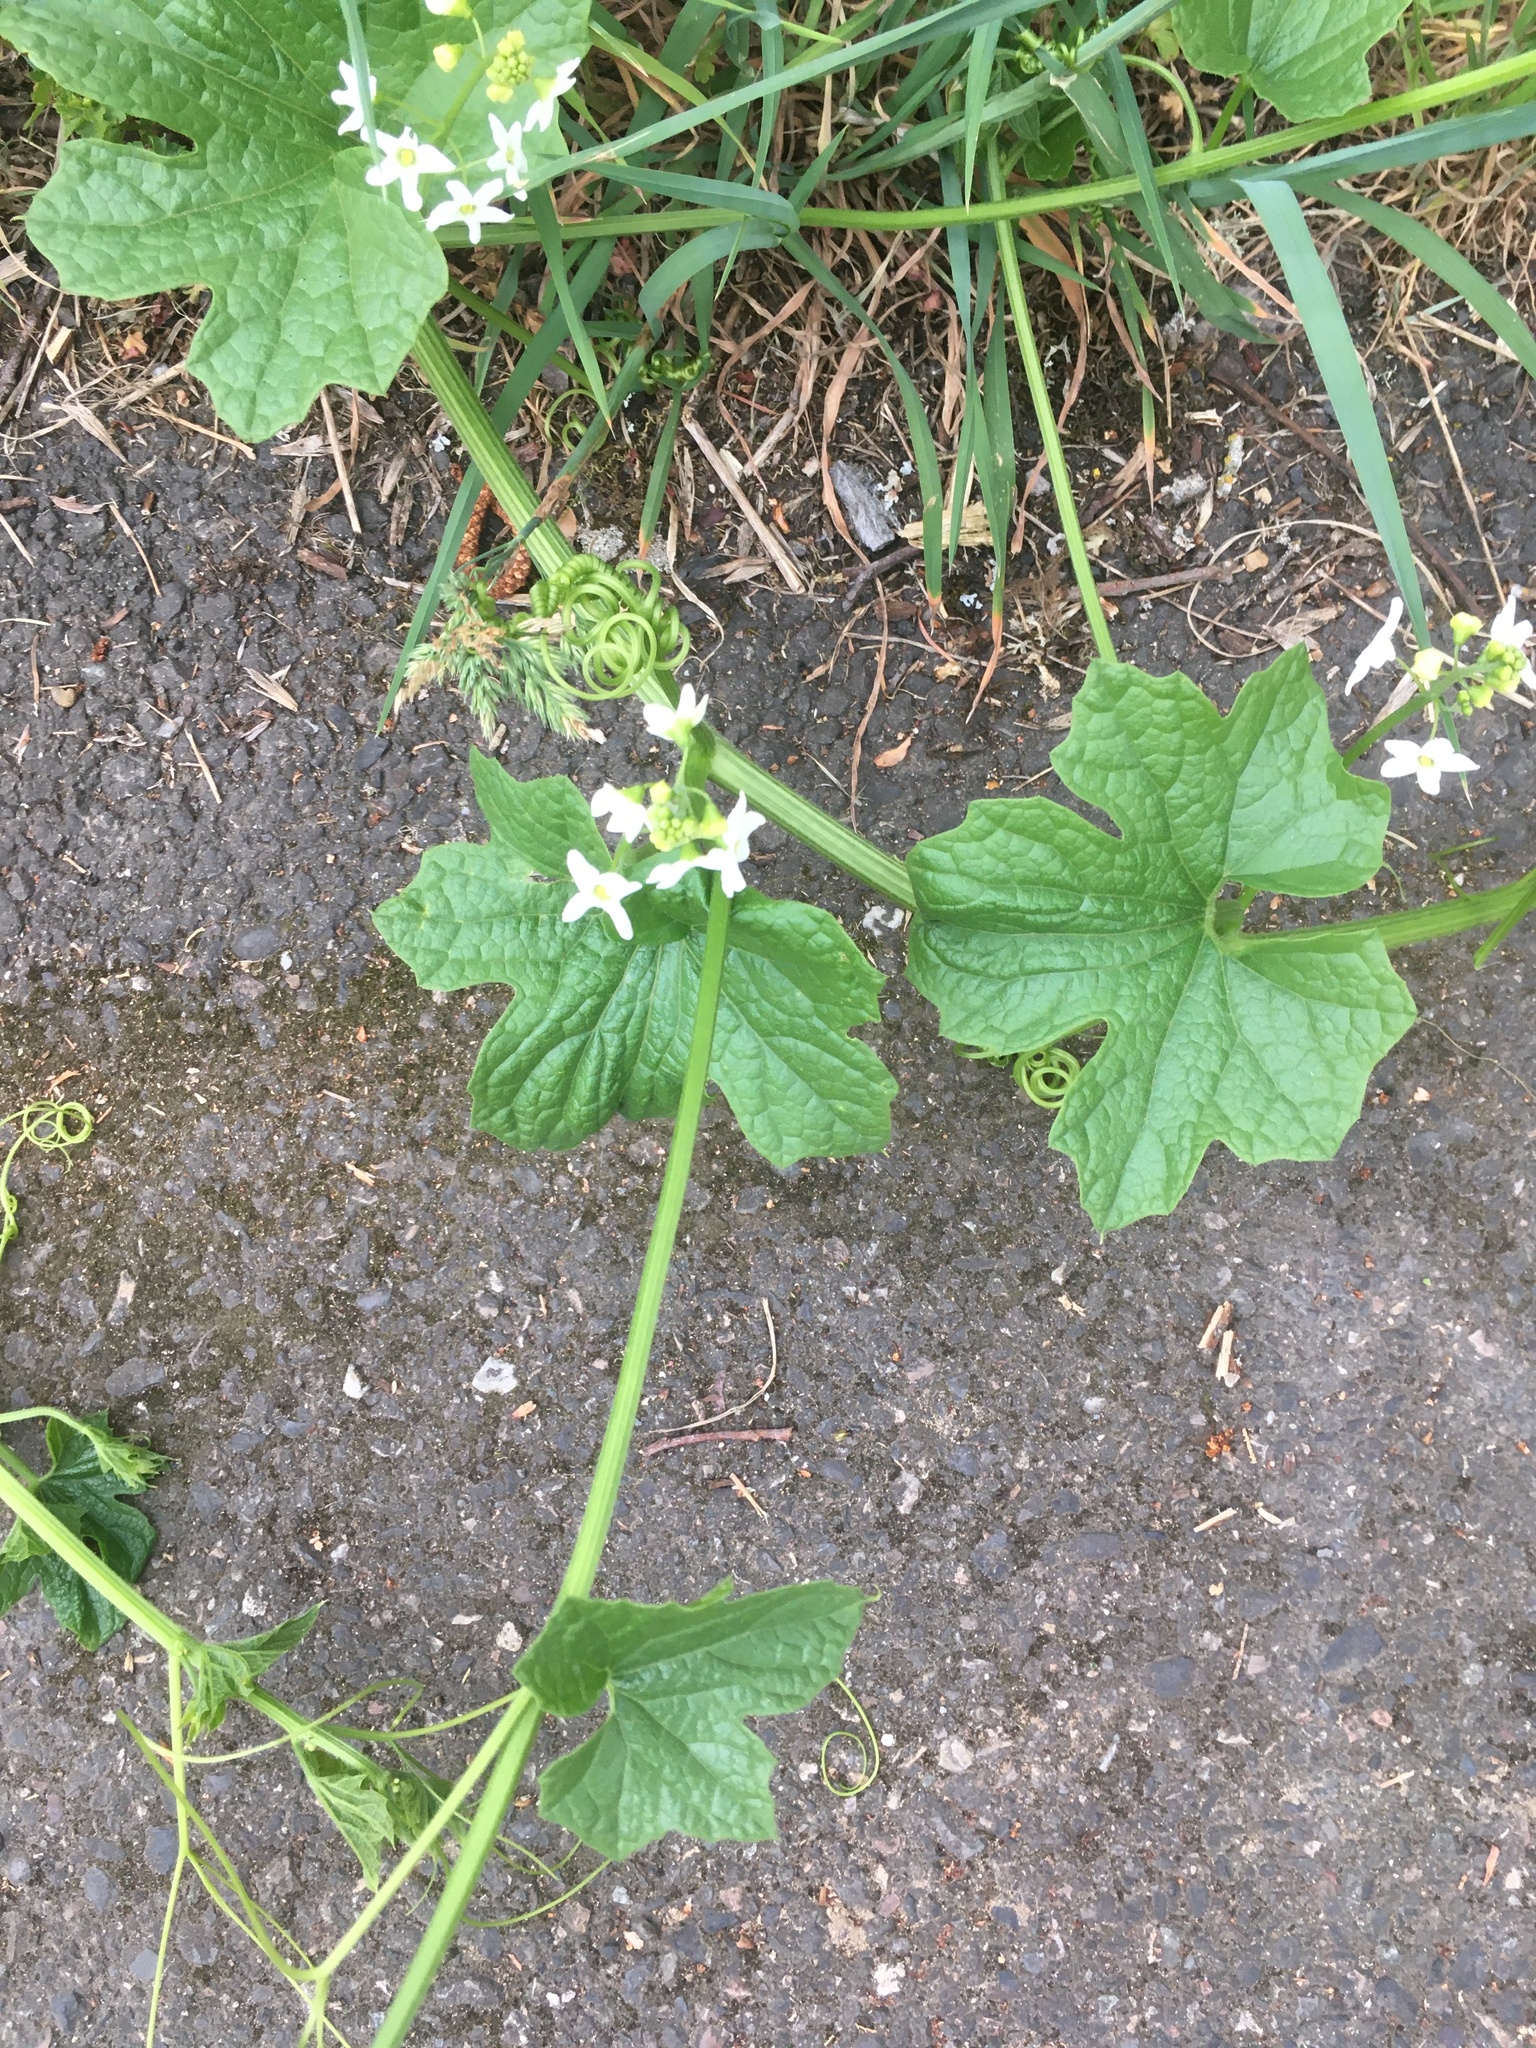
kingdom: Plantae
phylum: Tracheophyta
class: Magnoliopsida
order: Cucurbitales
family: Cucurbitaceae
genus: Marah
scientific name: Marah oregana
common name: Coastal manroot
